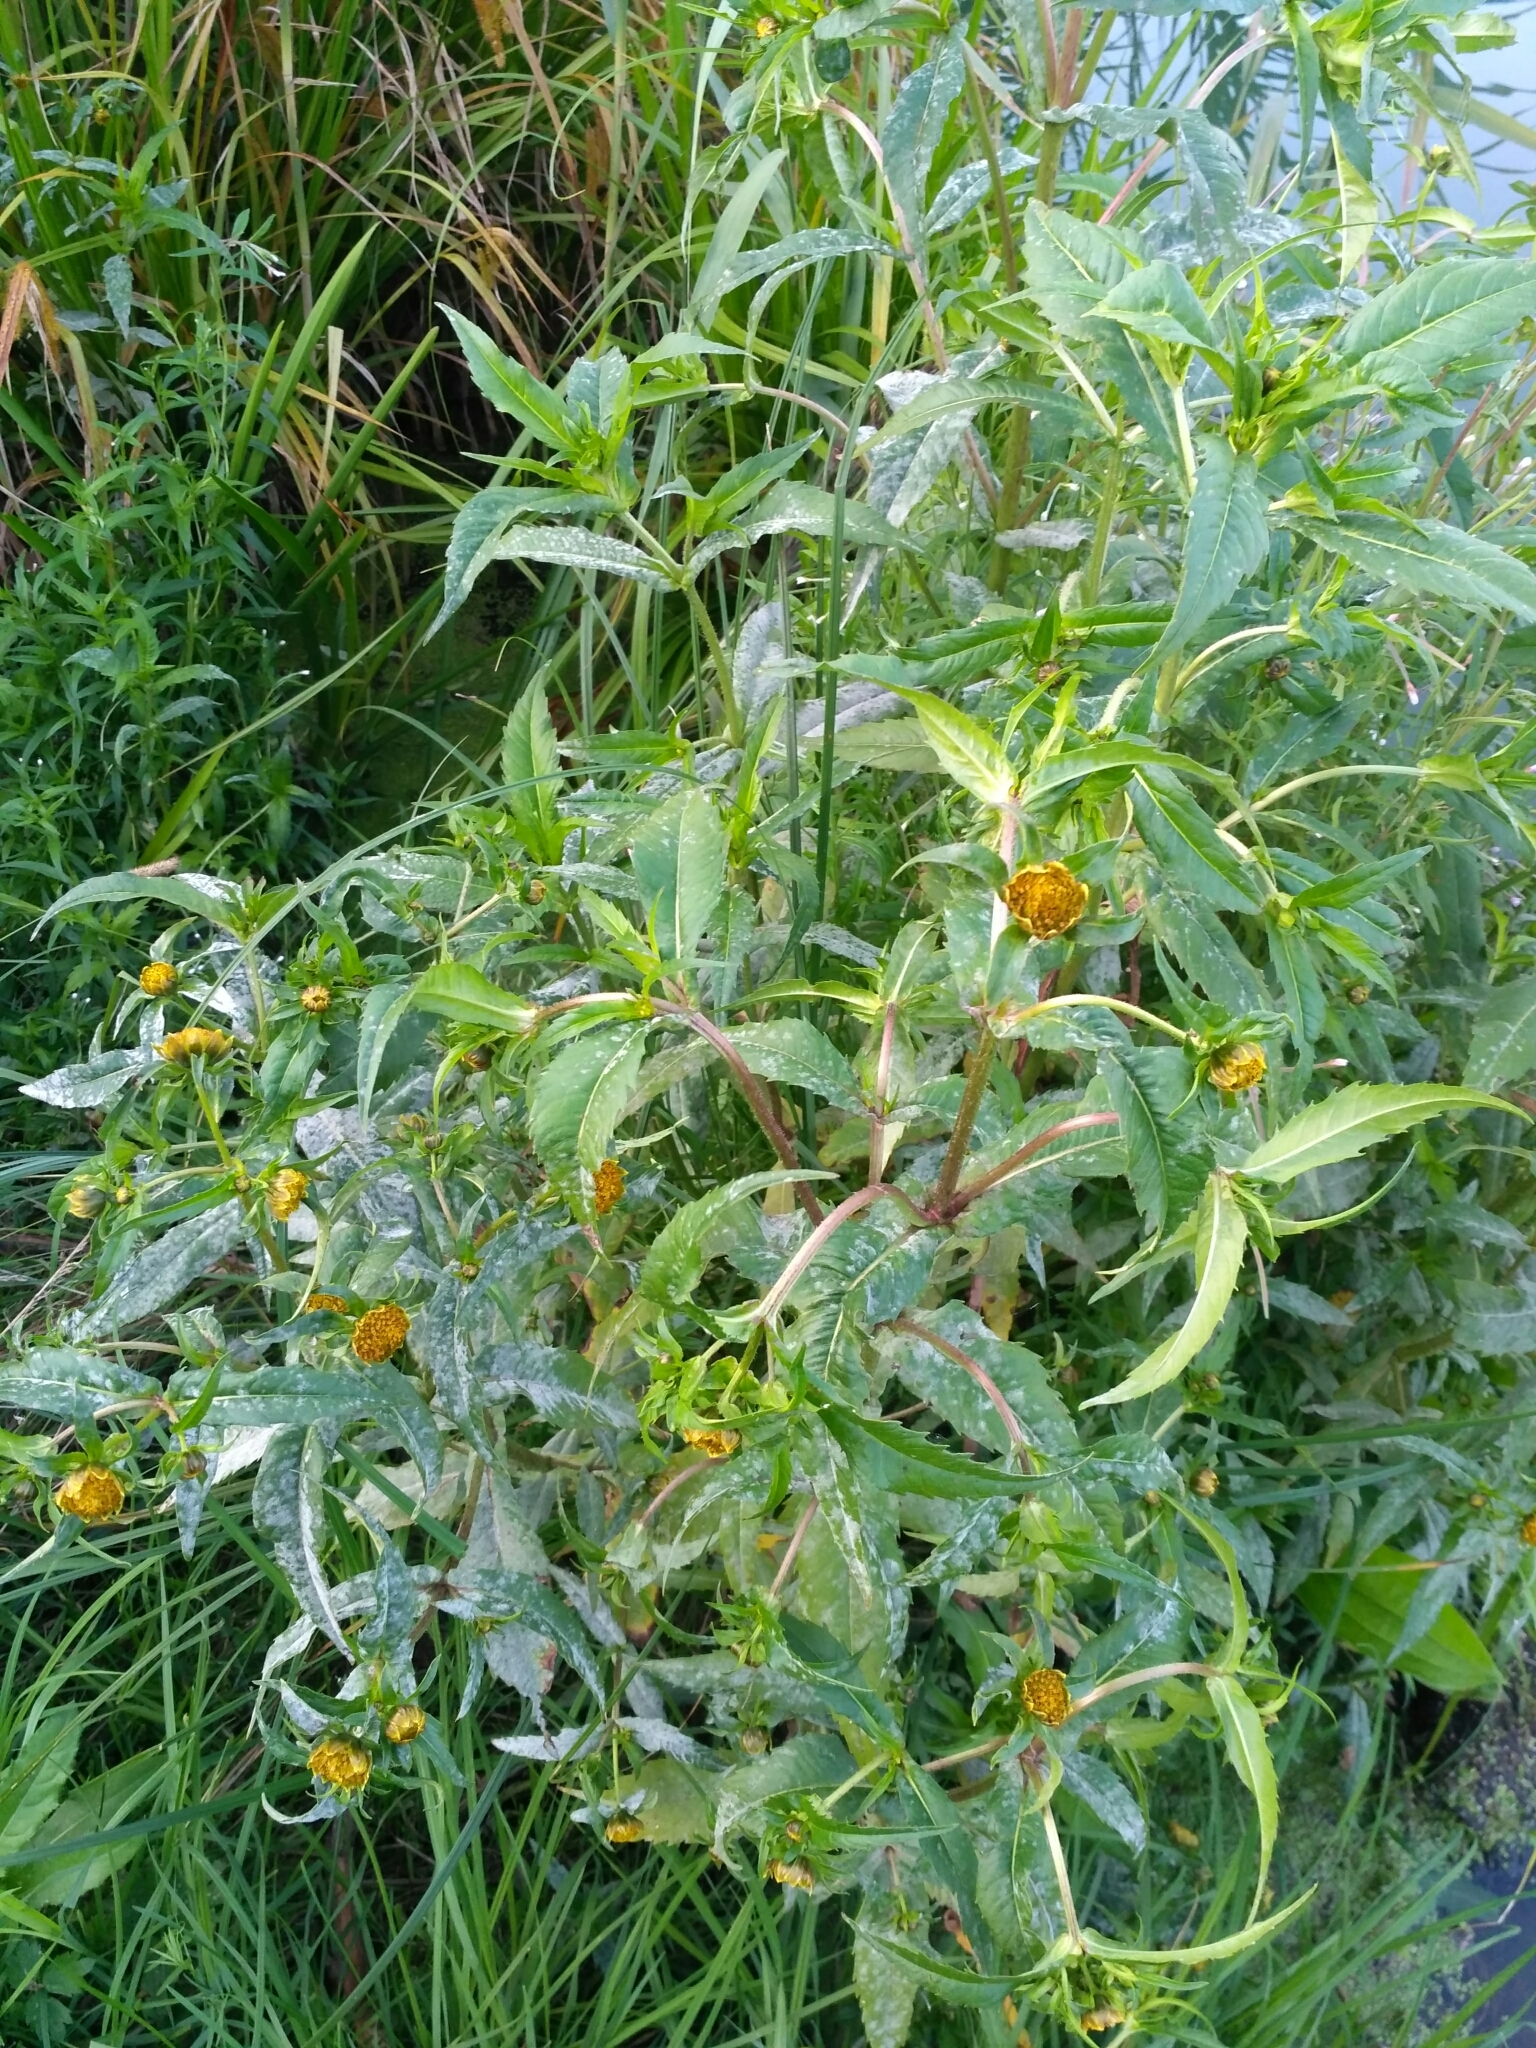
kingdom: Plantae
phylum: Tracheophyta
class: Magnoliopsida
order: Asterales
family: Asteraceae
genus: Bidens
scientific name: Bidens cernua
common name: Nodding bur-marigold
